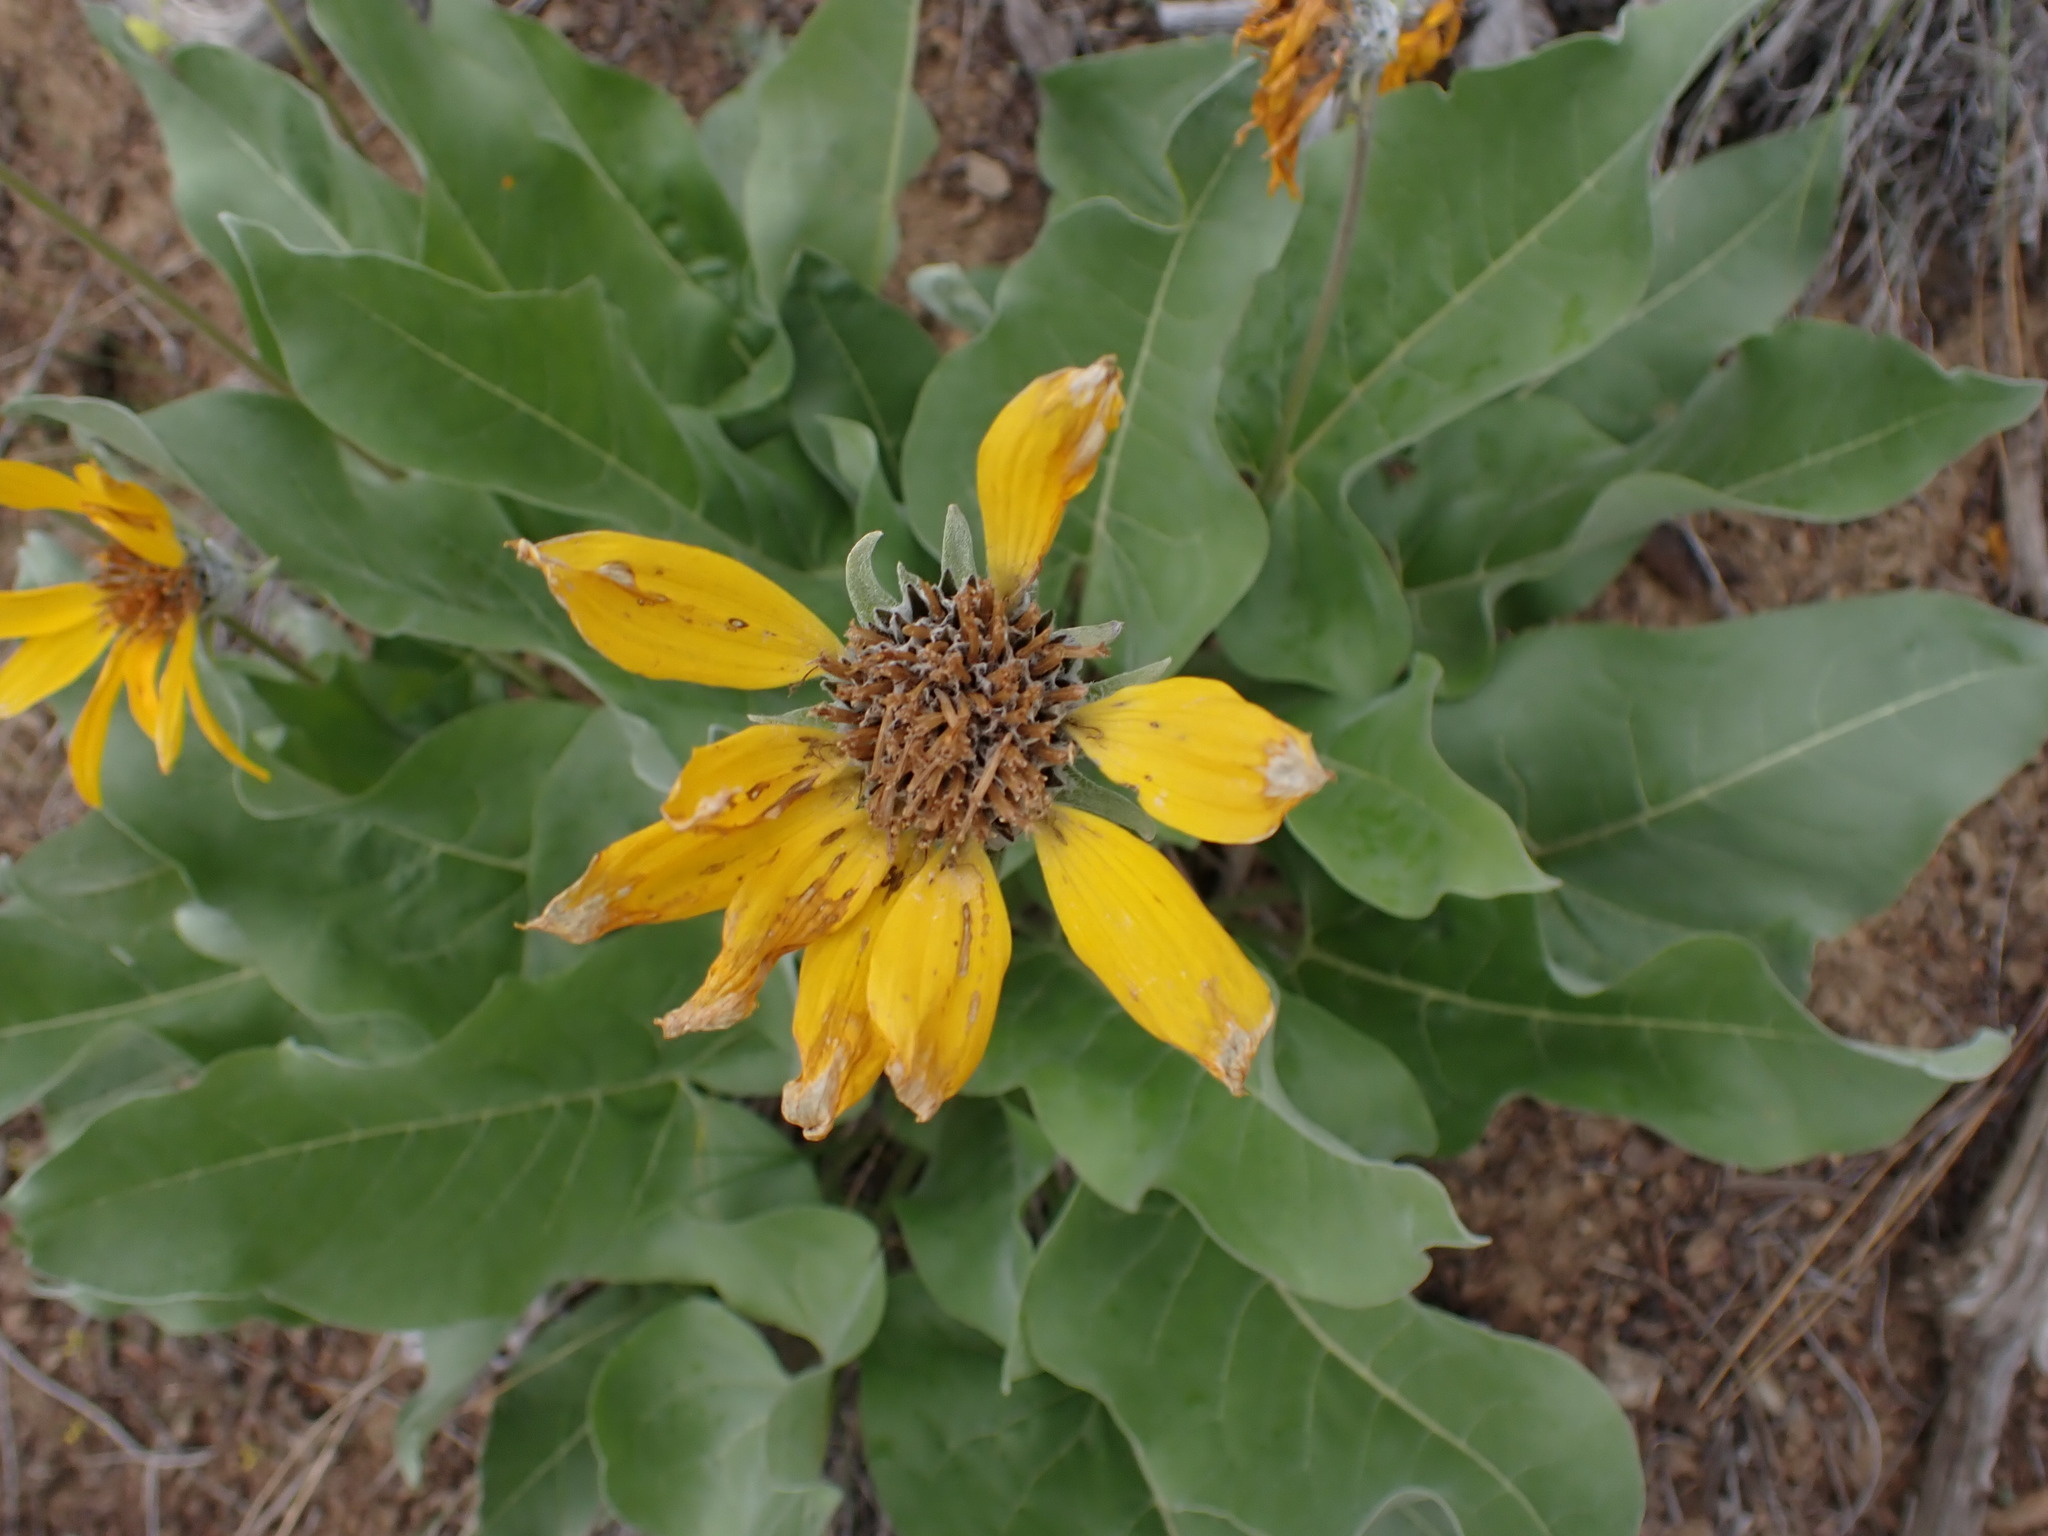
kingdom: Plantae
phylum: Tracheophyta
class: Magnoliopsida
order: Asterales
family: Asteraceae
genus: Wyethia
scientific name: Wyethia sagittata
